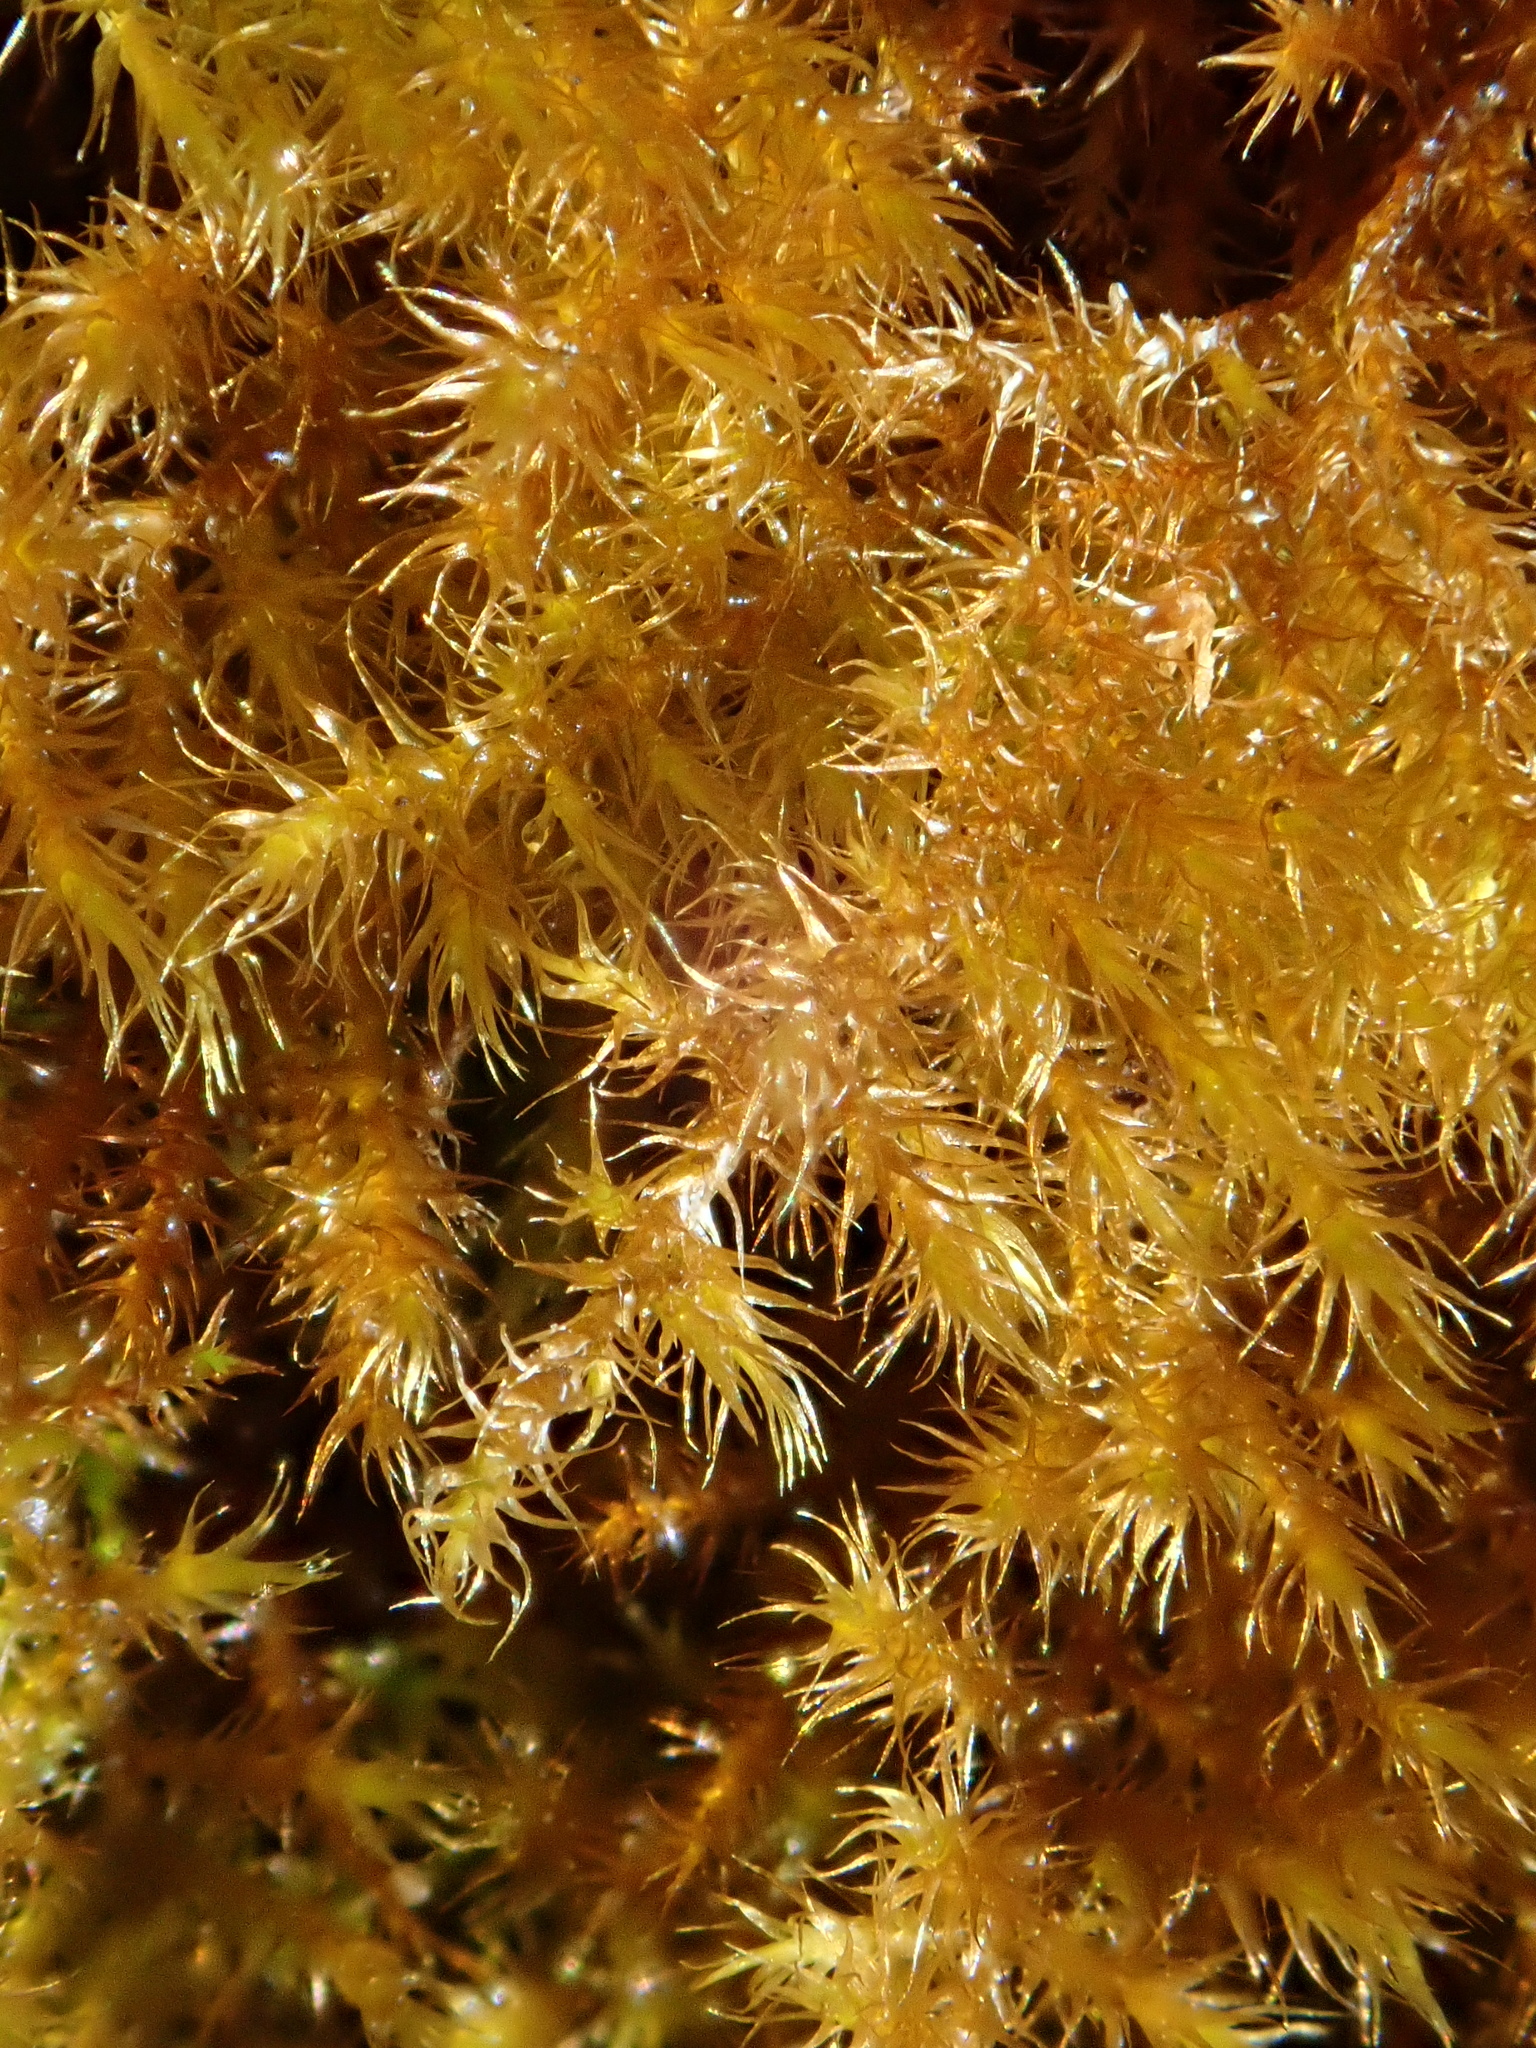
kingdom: Plantae
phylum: Bryophyta
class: Bryopsida
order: Hypnales
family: Amblystegiaceae
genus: Campylium
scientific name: Campylium chrysophyllum
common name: Goldenleaf campylium moss
